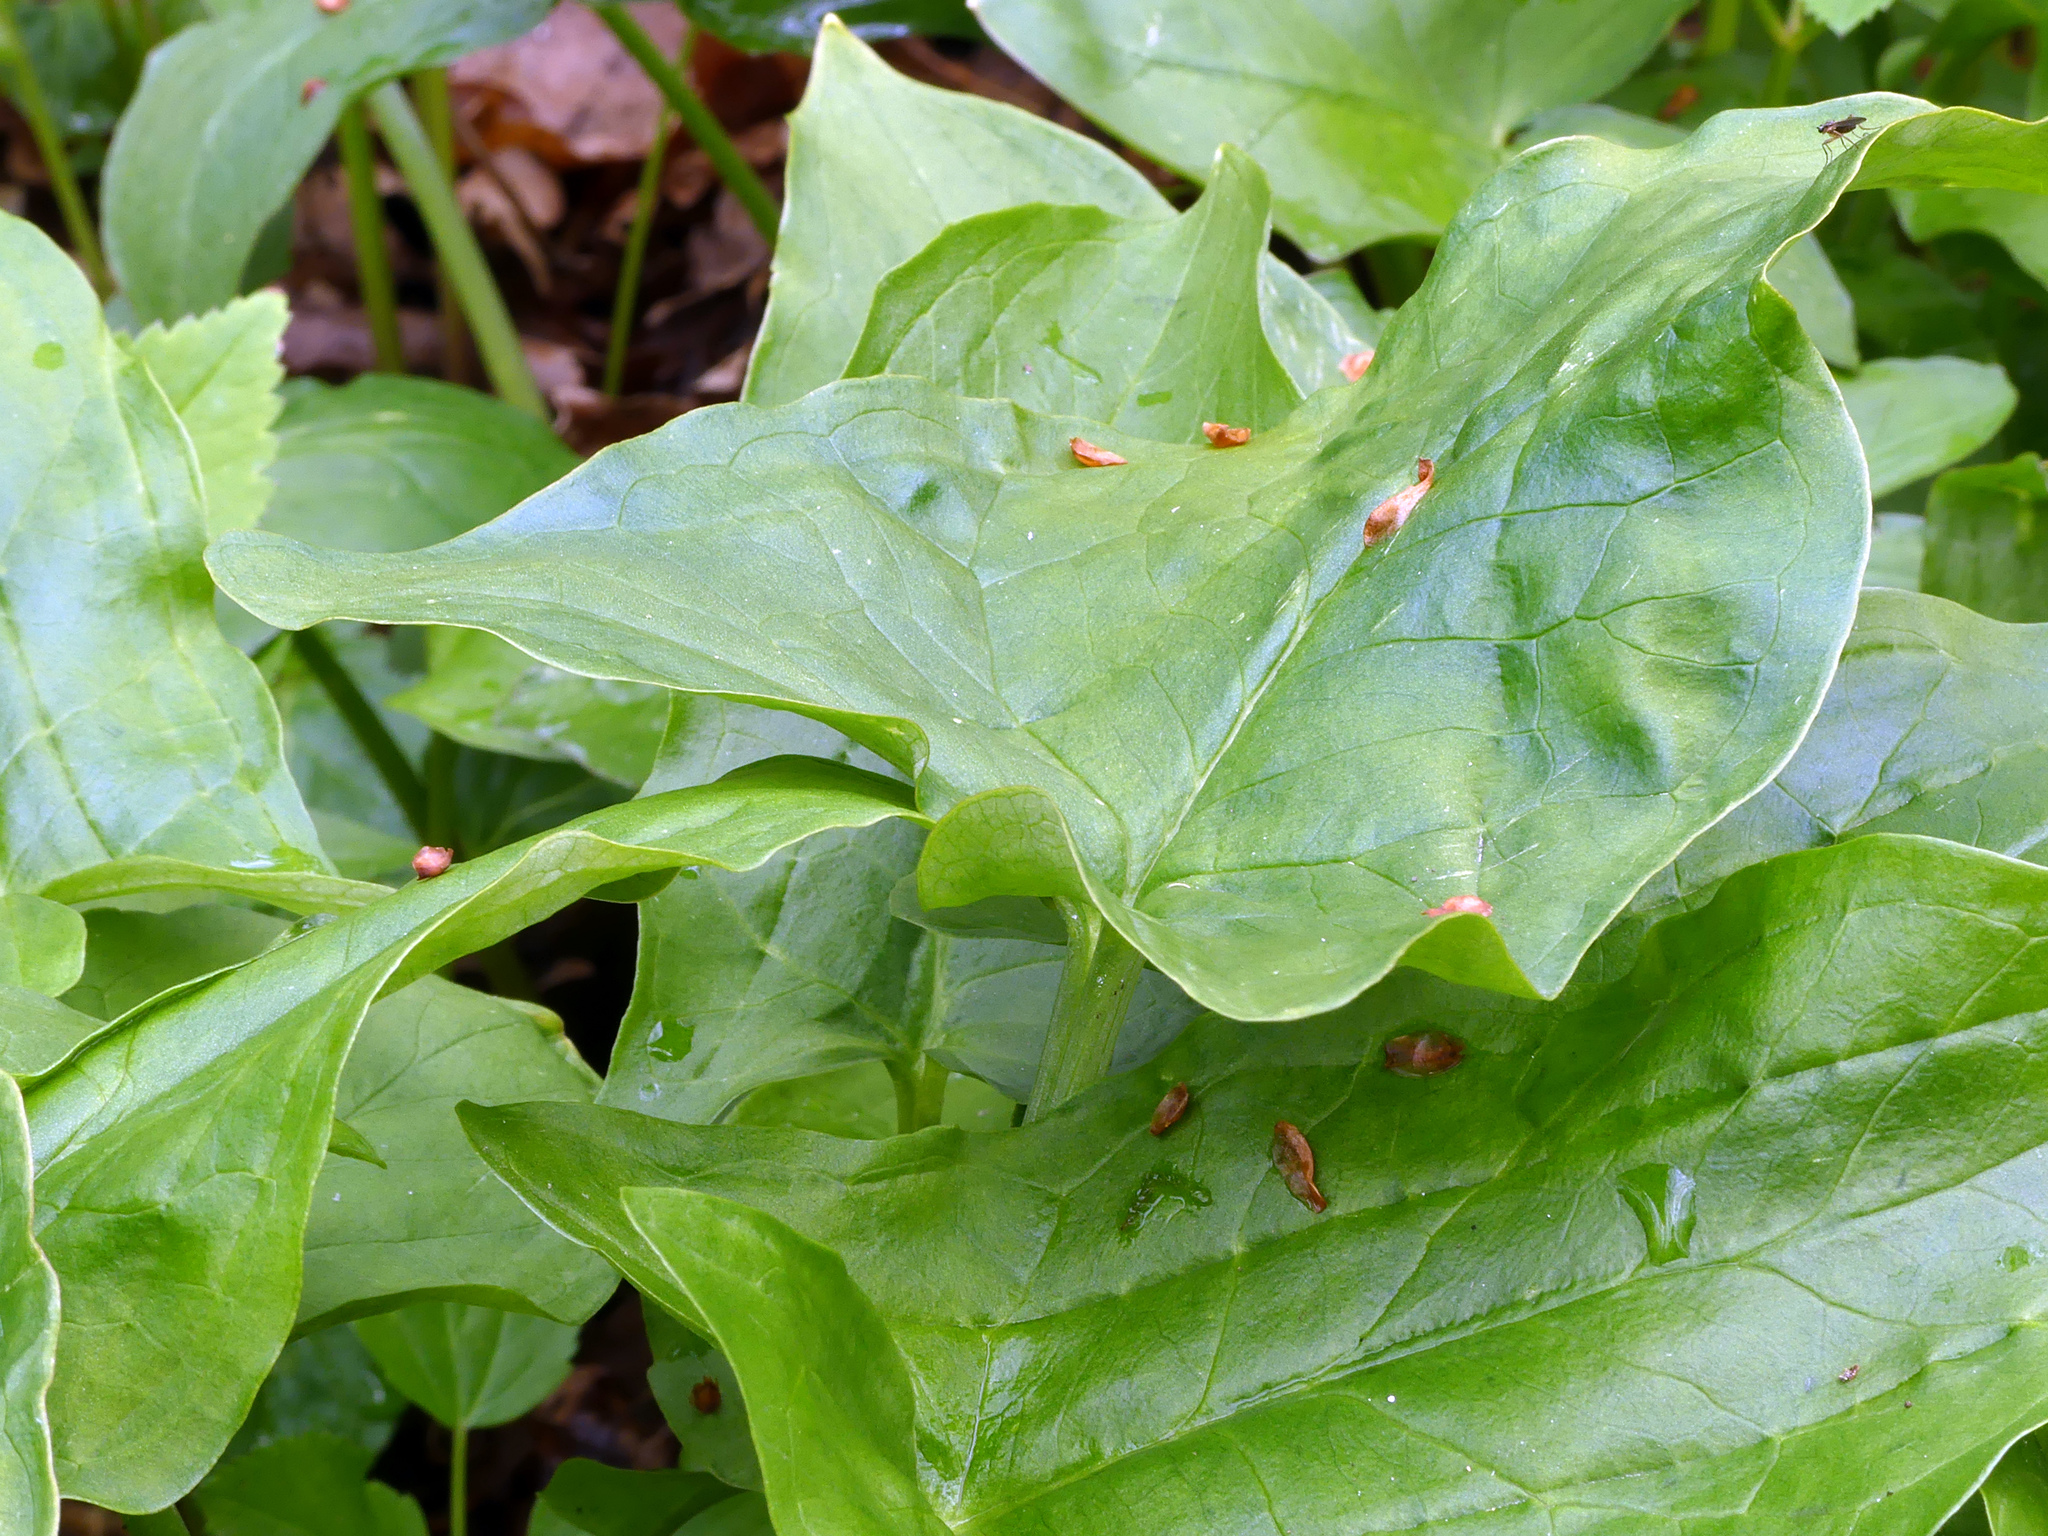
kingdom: Plantae
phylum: Tracheophyta
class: Liliopsida
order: Alismatales
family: Araceae
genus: Arum
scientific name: Arum maculatum
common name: Lords-and-ladies
